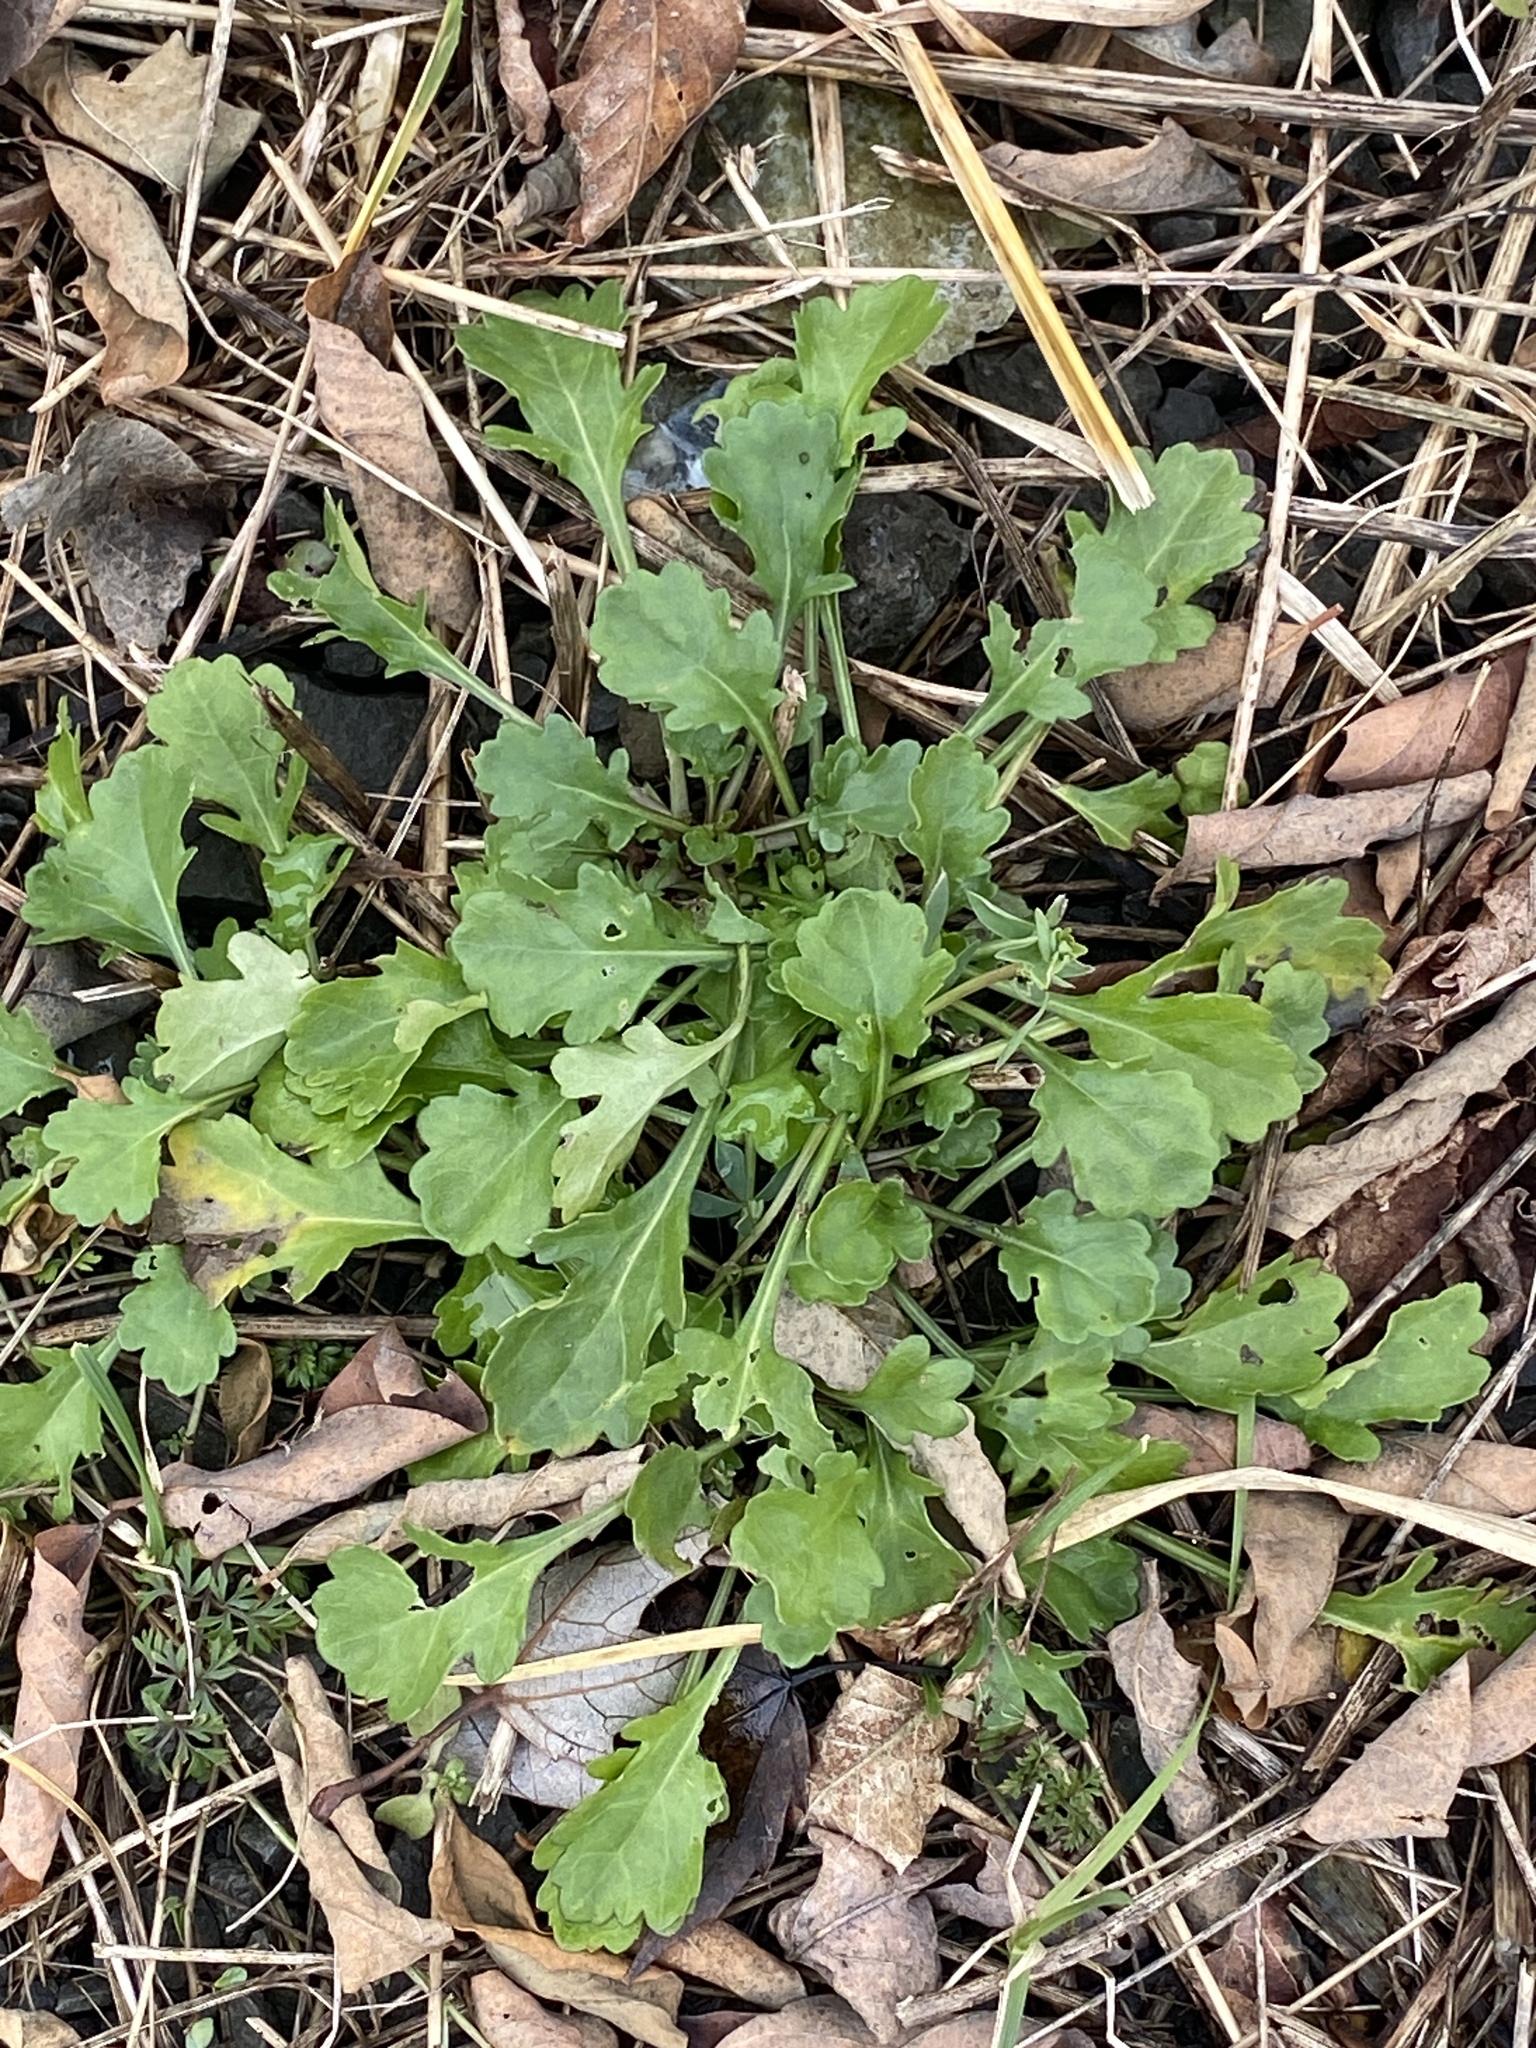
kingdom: Plantae
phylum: Tracheophyta
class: Magnoliopsida
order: Asterales
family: Asteraceae
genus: Leucanthemum
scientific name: Leucanthemum vulgare
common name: Oxeye daisy
